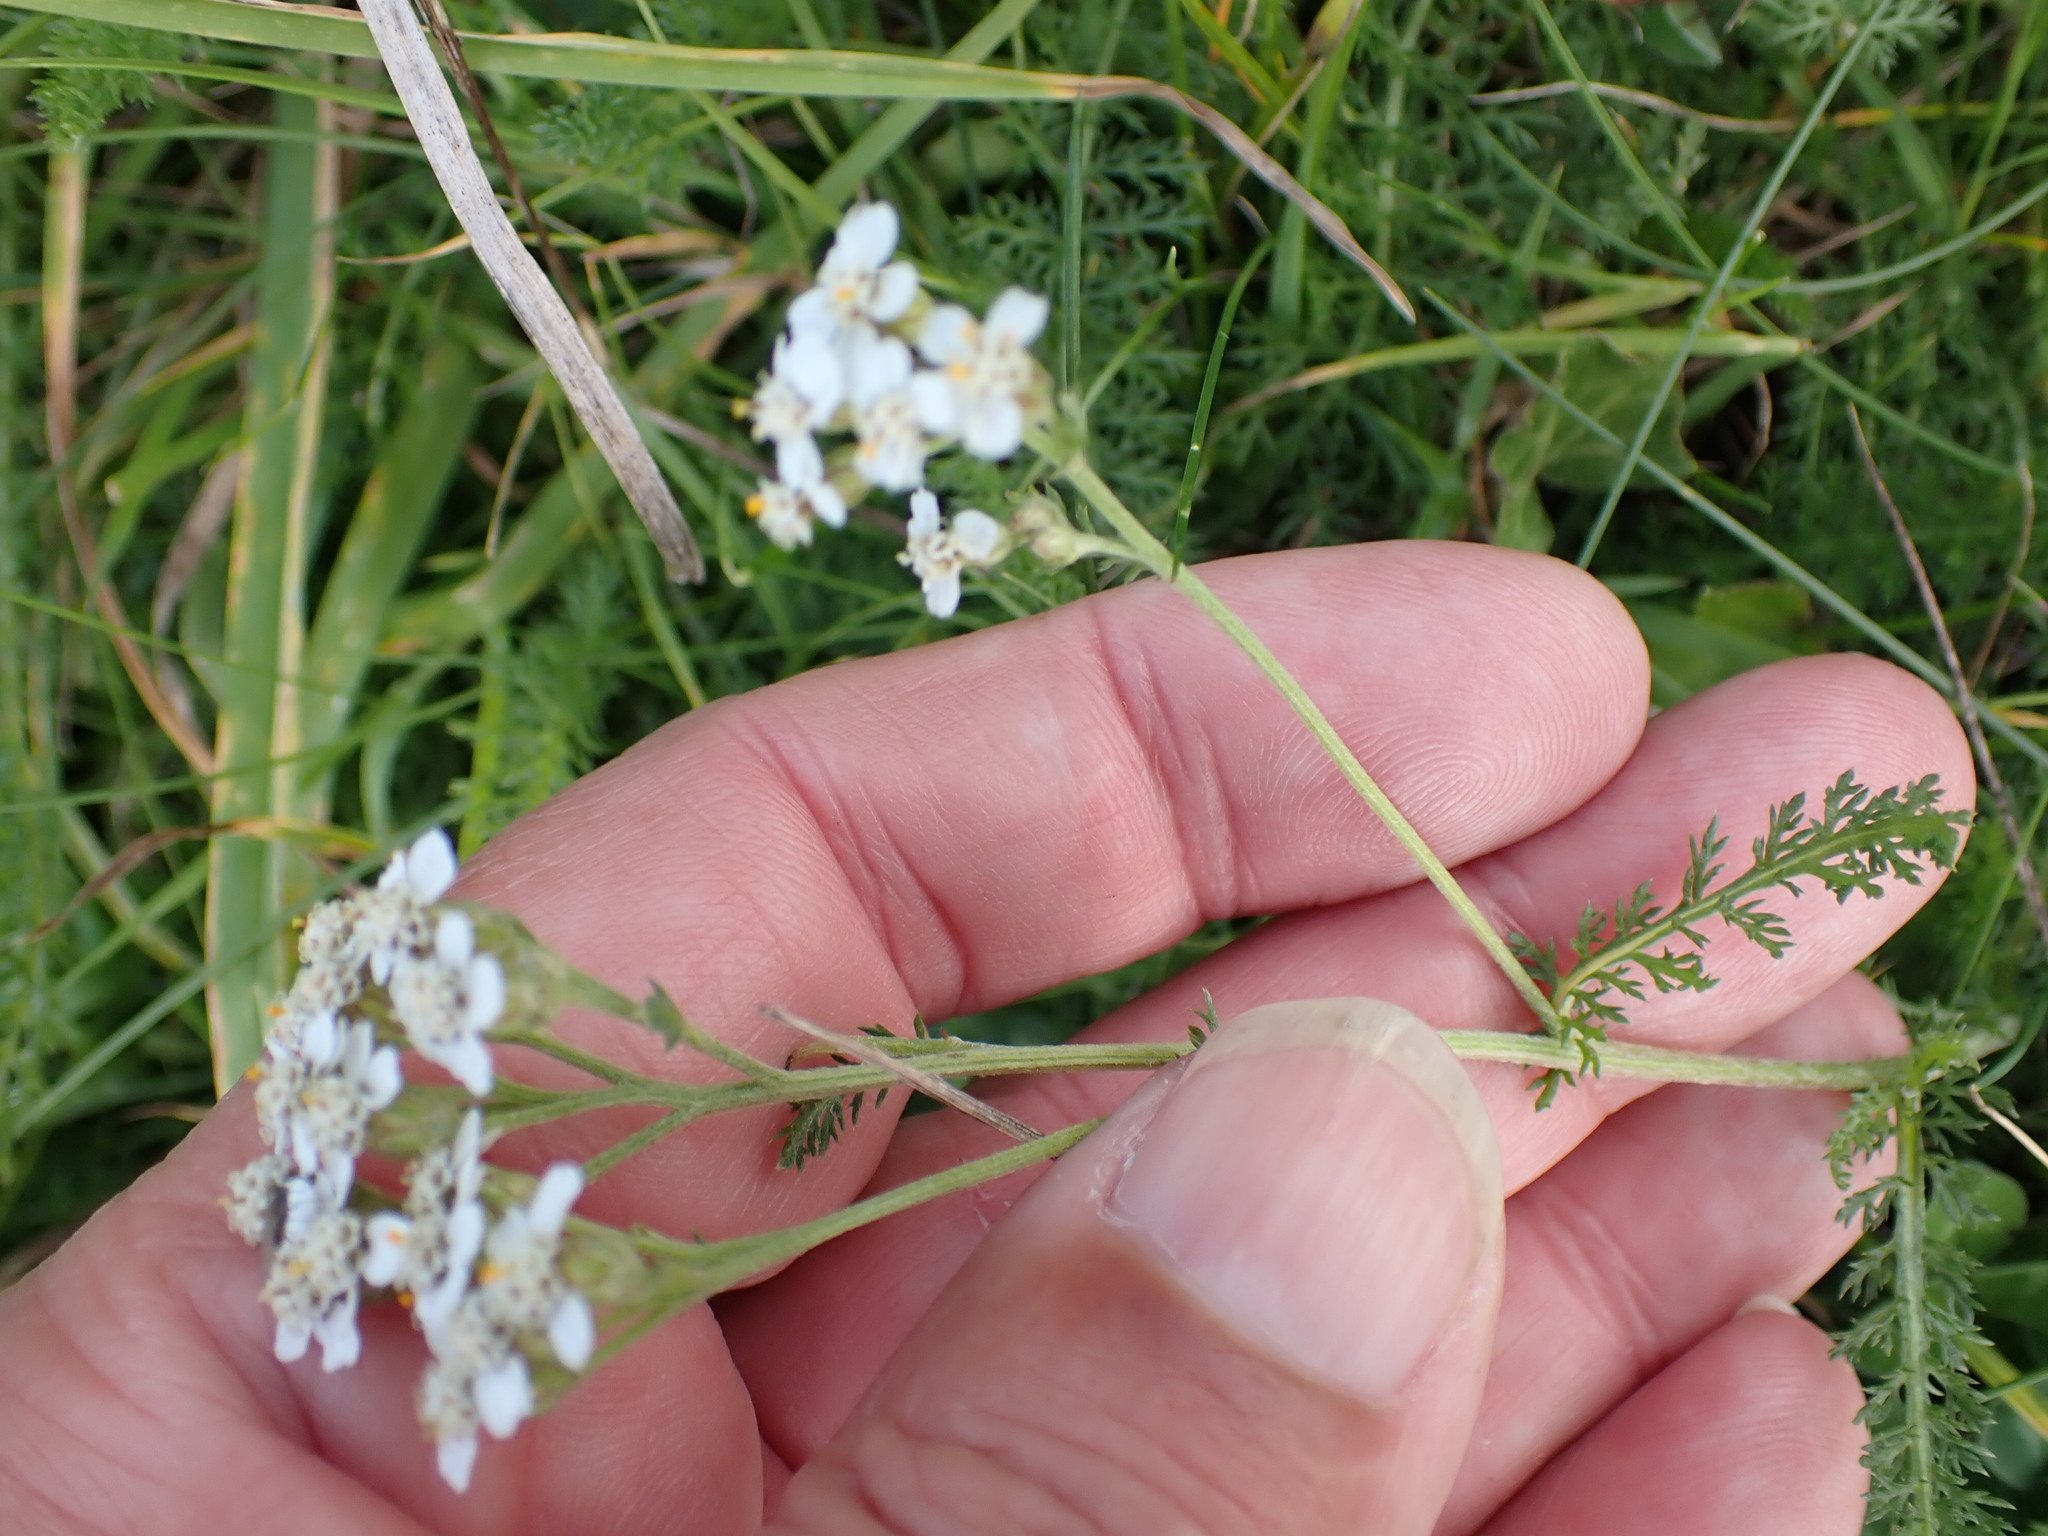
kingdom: Plantae
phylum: Tracheophyta
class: Magnoliopsida
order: Asterales
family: Asteraceae
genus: Achillea
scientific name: Achillea millefolium
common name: Yarrow
